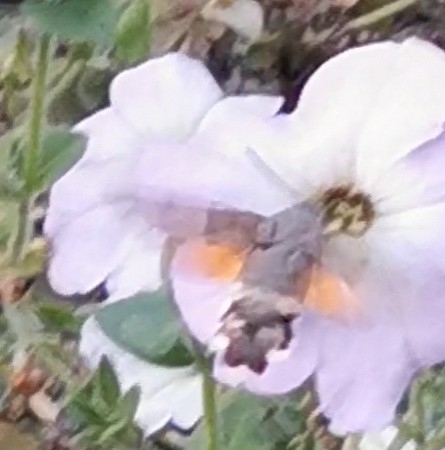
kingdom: Animalia
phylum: Arthropoda
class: Insecta
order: Lepidoptera
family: Sphingidae
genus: Macroglossum
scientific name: Macroglossum stellatarum
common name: Humming-bird hawk-moth
